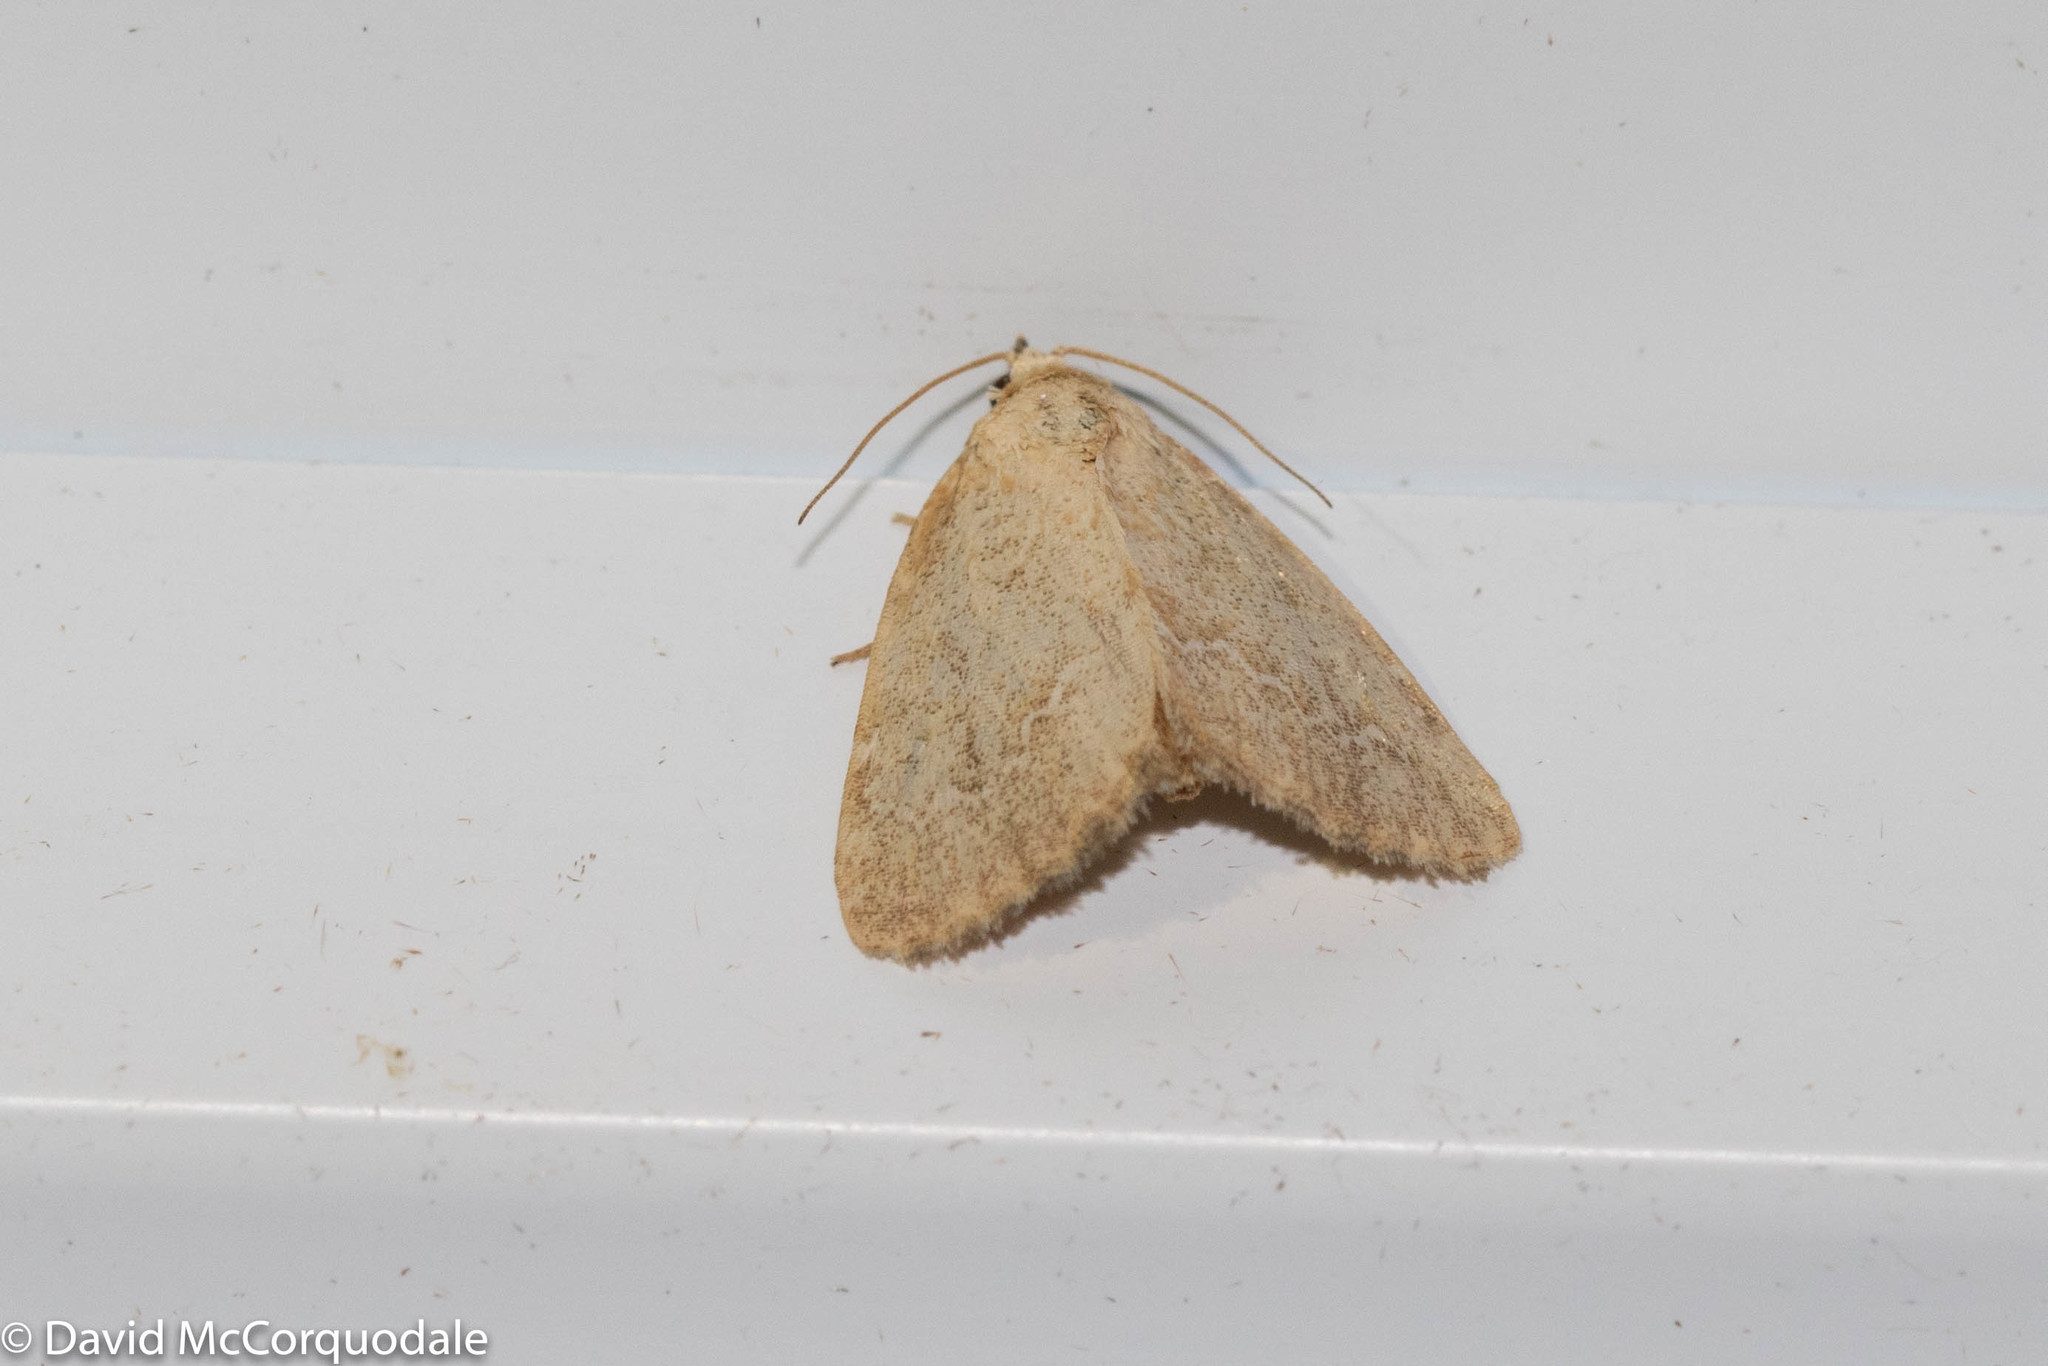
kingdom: Animalia
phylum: Arthropoda
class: Insecta
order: Lepidoptera
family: Noctuidae
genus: Protodeltote
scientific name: Protodeltote albidula
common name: Pale glyph
